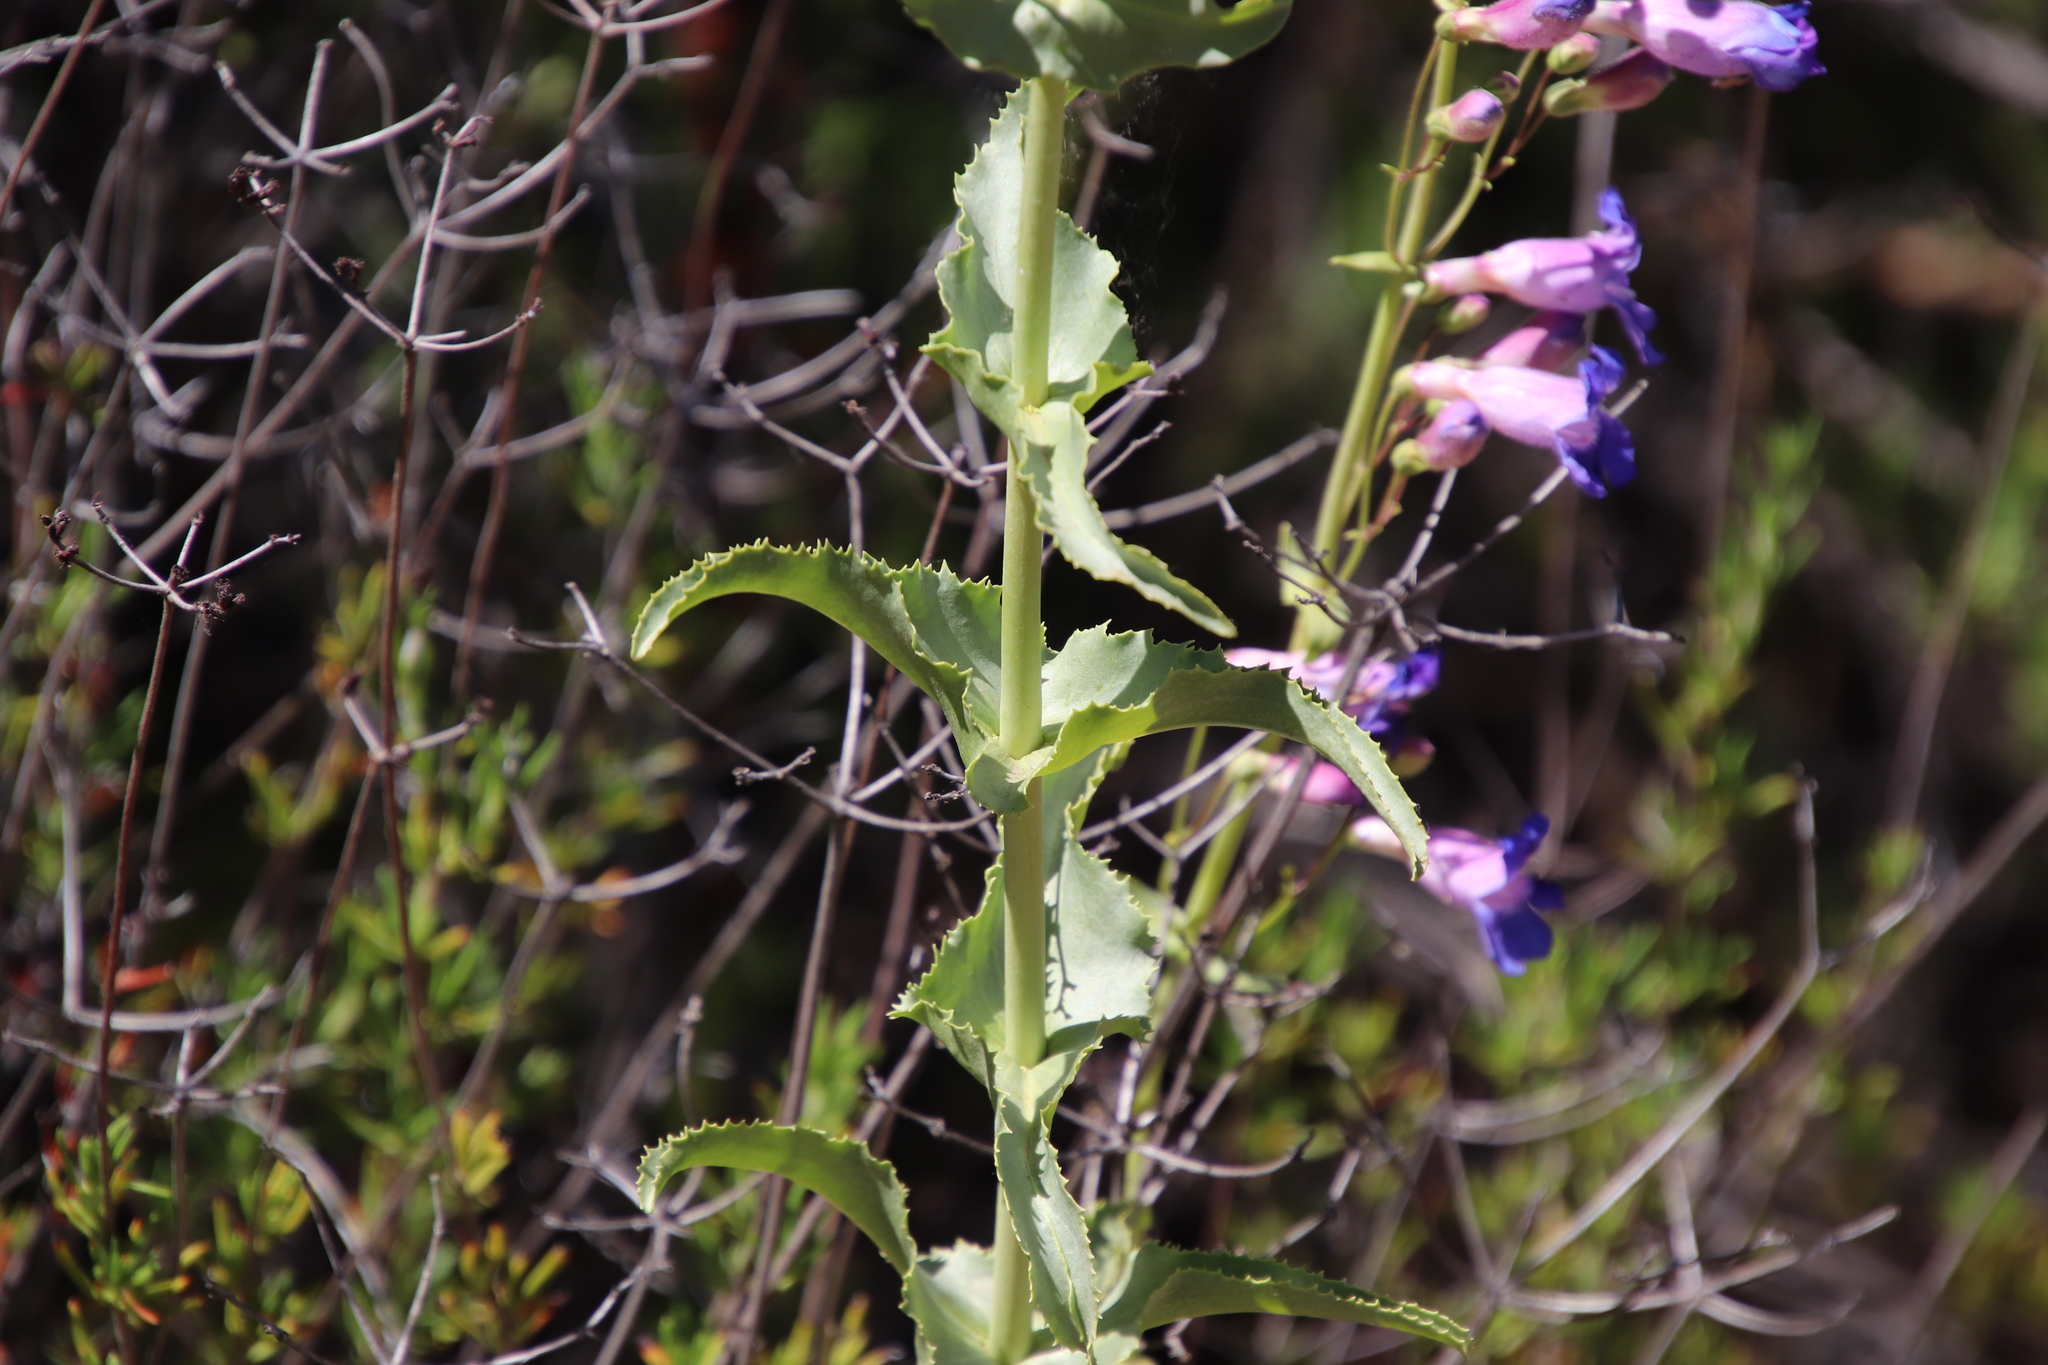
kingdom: Plantae
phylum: Tracheophyta
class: Magnoliopsida
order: Lamiales
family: Plantaginaceae
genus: Penstemon
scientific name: Penstemon spectabilis
